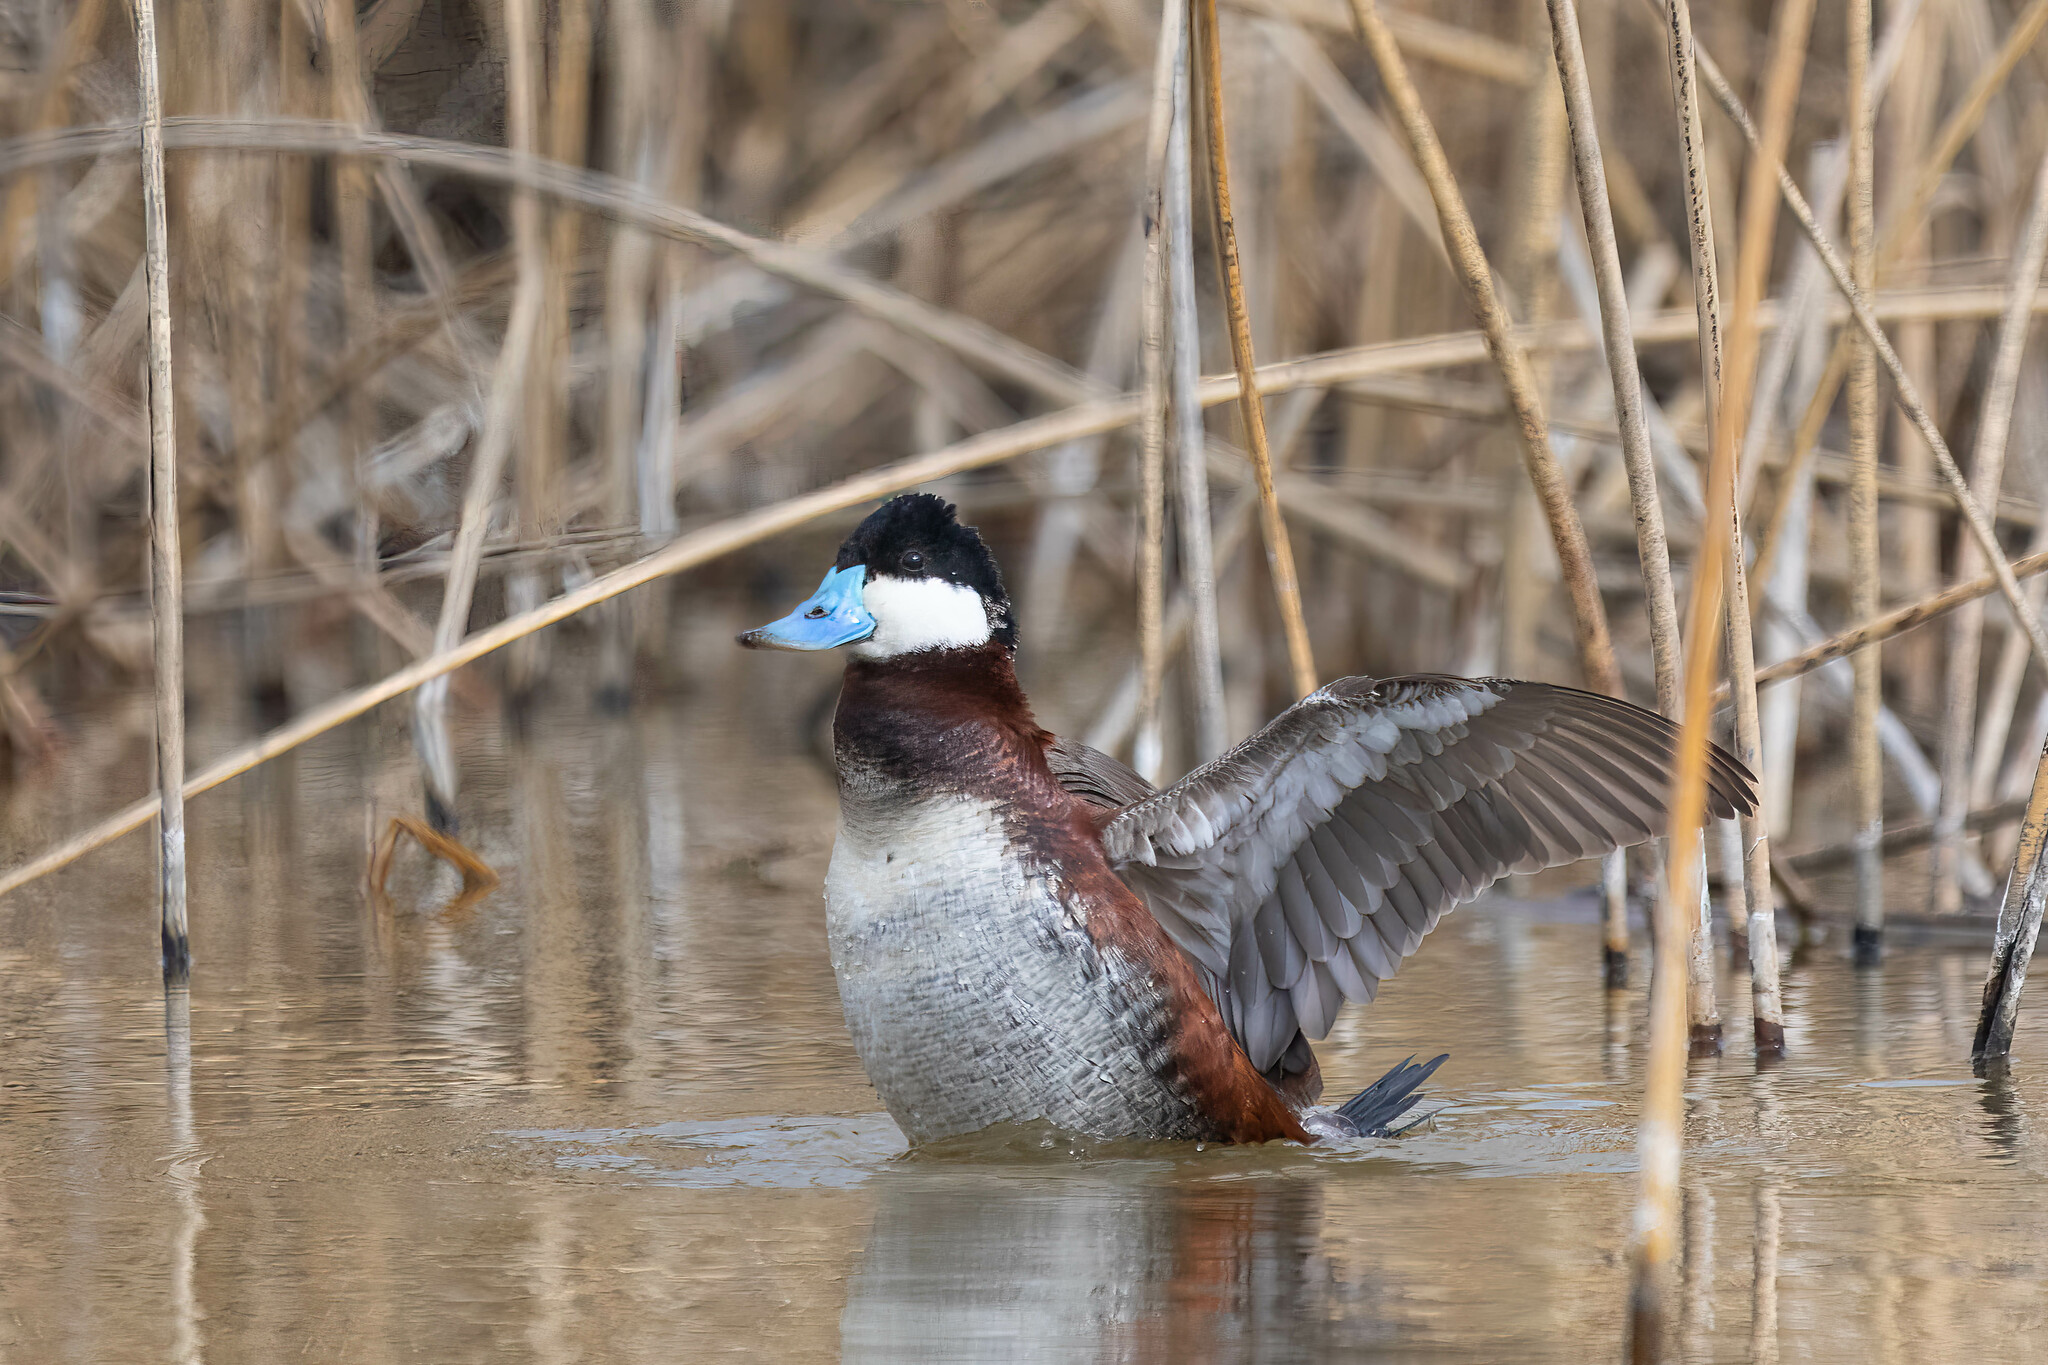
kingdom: Animalia
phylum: Chordata
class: Aves
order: Anseriformes
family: Anatidae
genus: Oxyura
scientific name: Oxyura jamaicensis
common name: Ruddy duck
